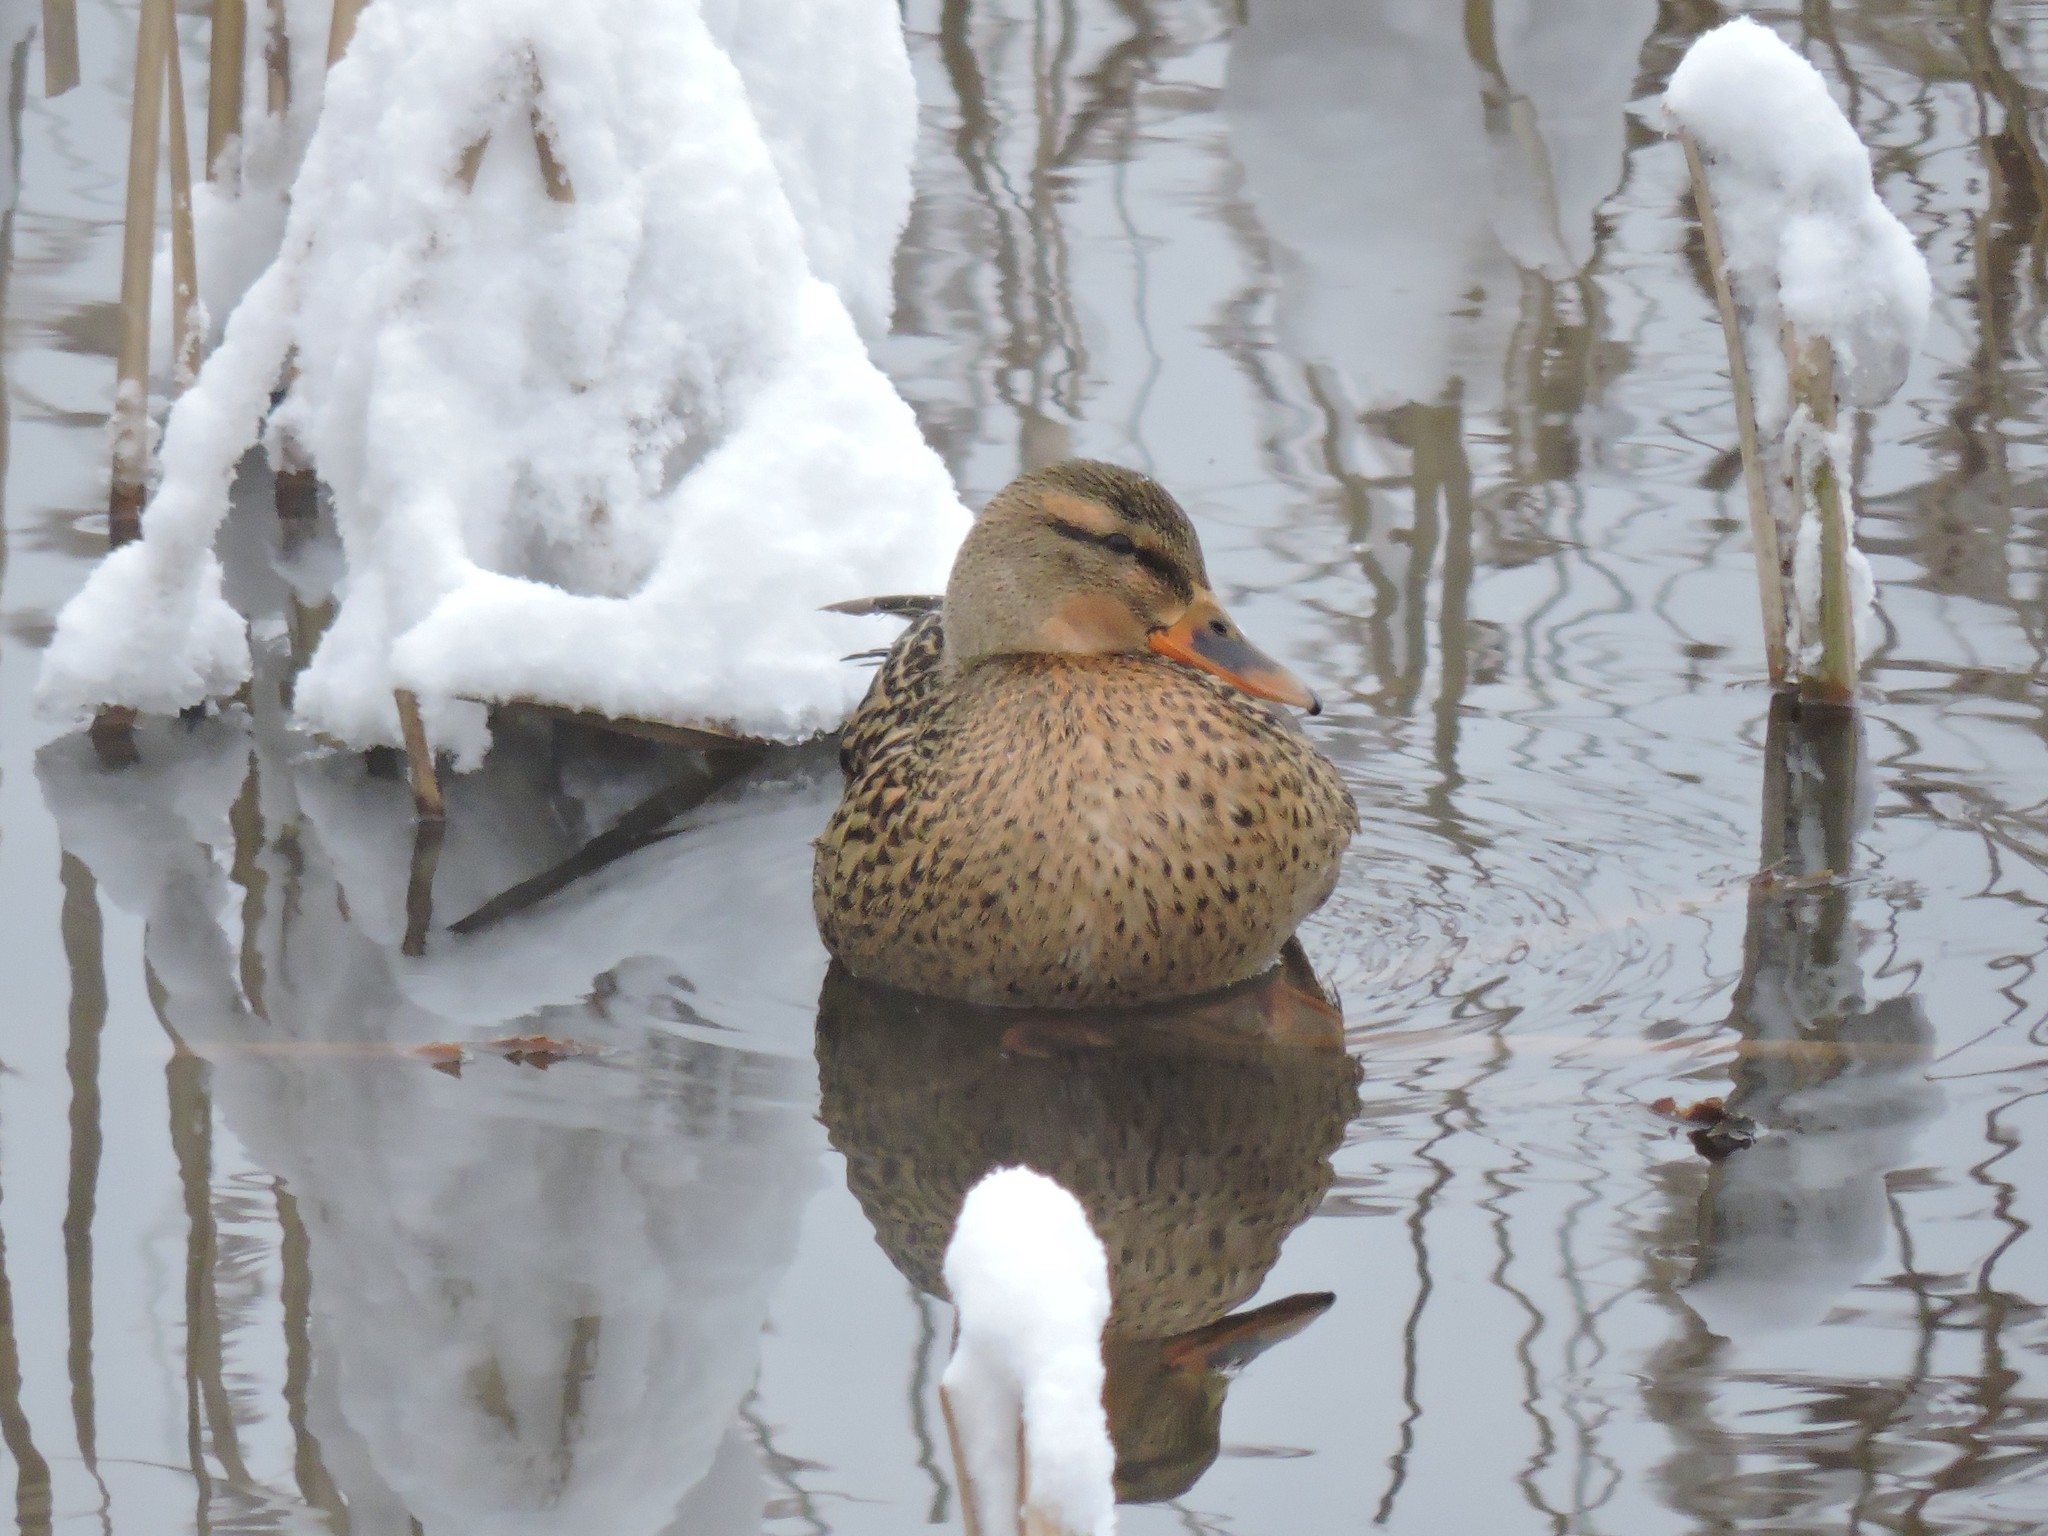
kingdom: Animalia
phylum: Chordata
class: Aves
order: Anseriformes
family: Anatidae
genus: Anas
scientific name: Anas platyrhynchos
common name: Mallard
